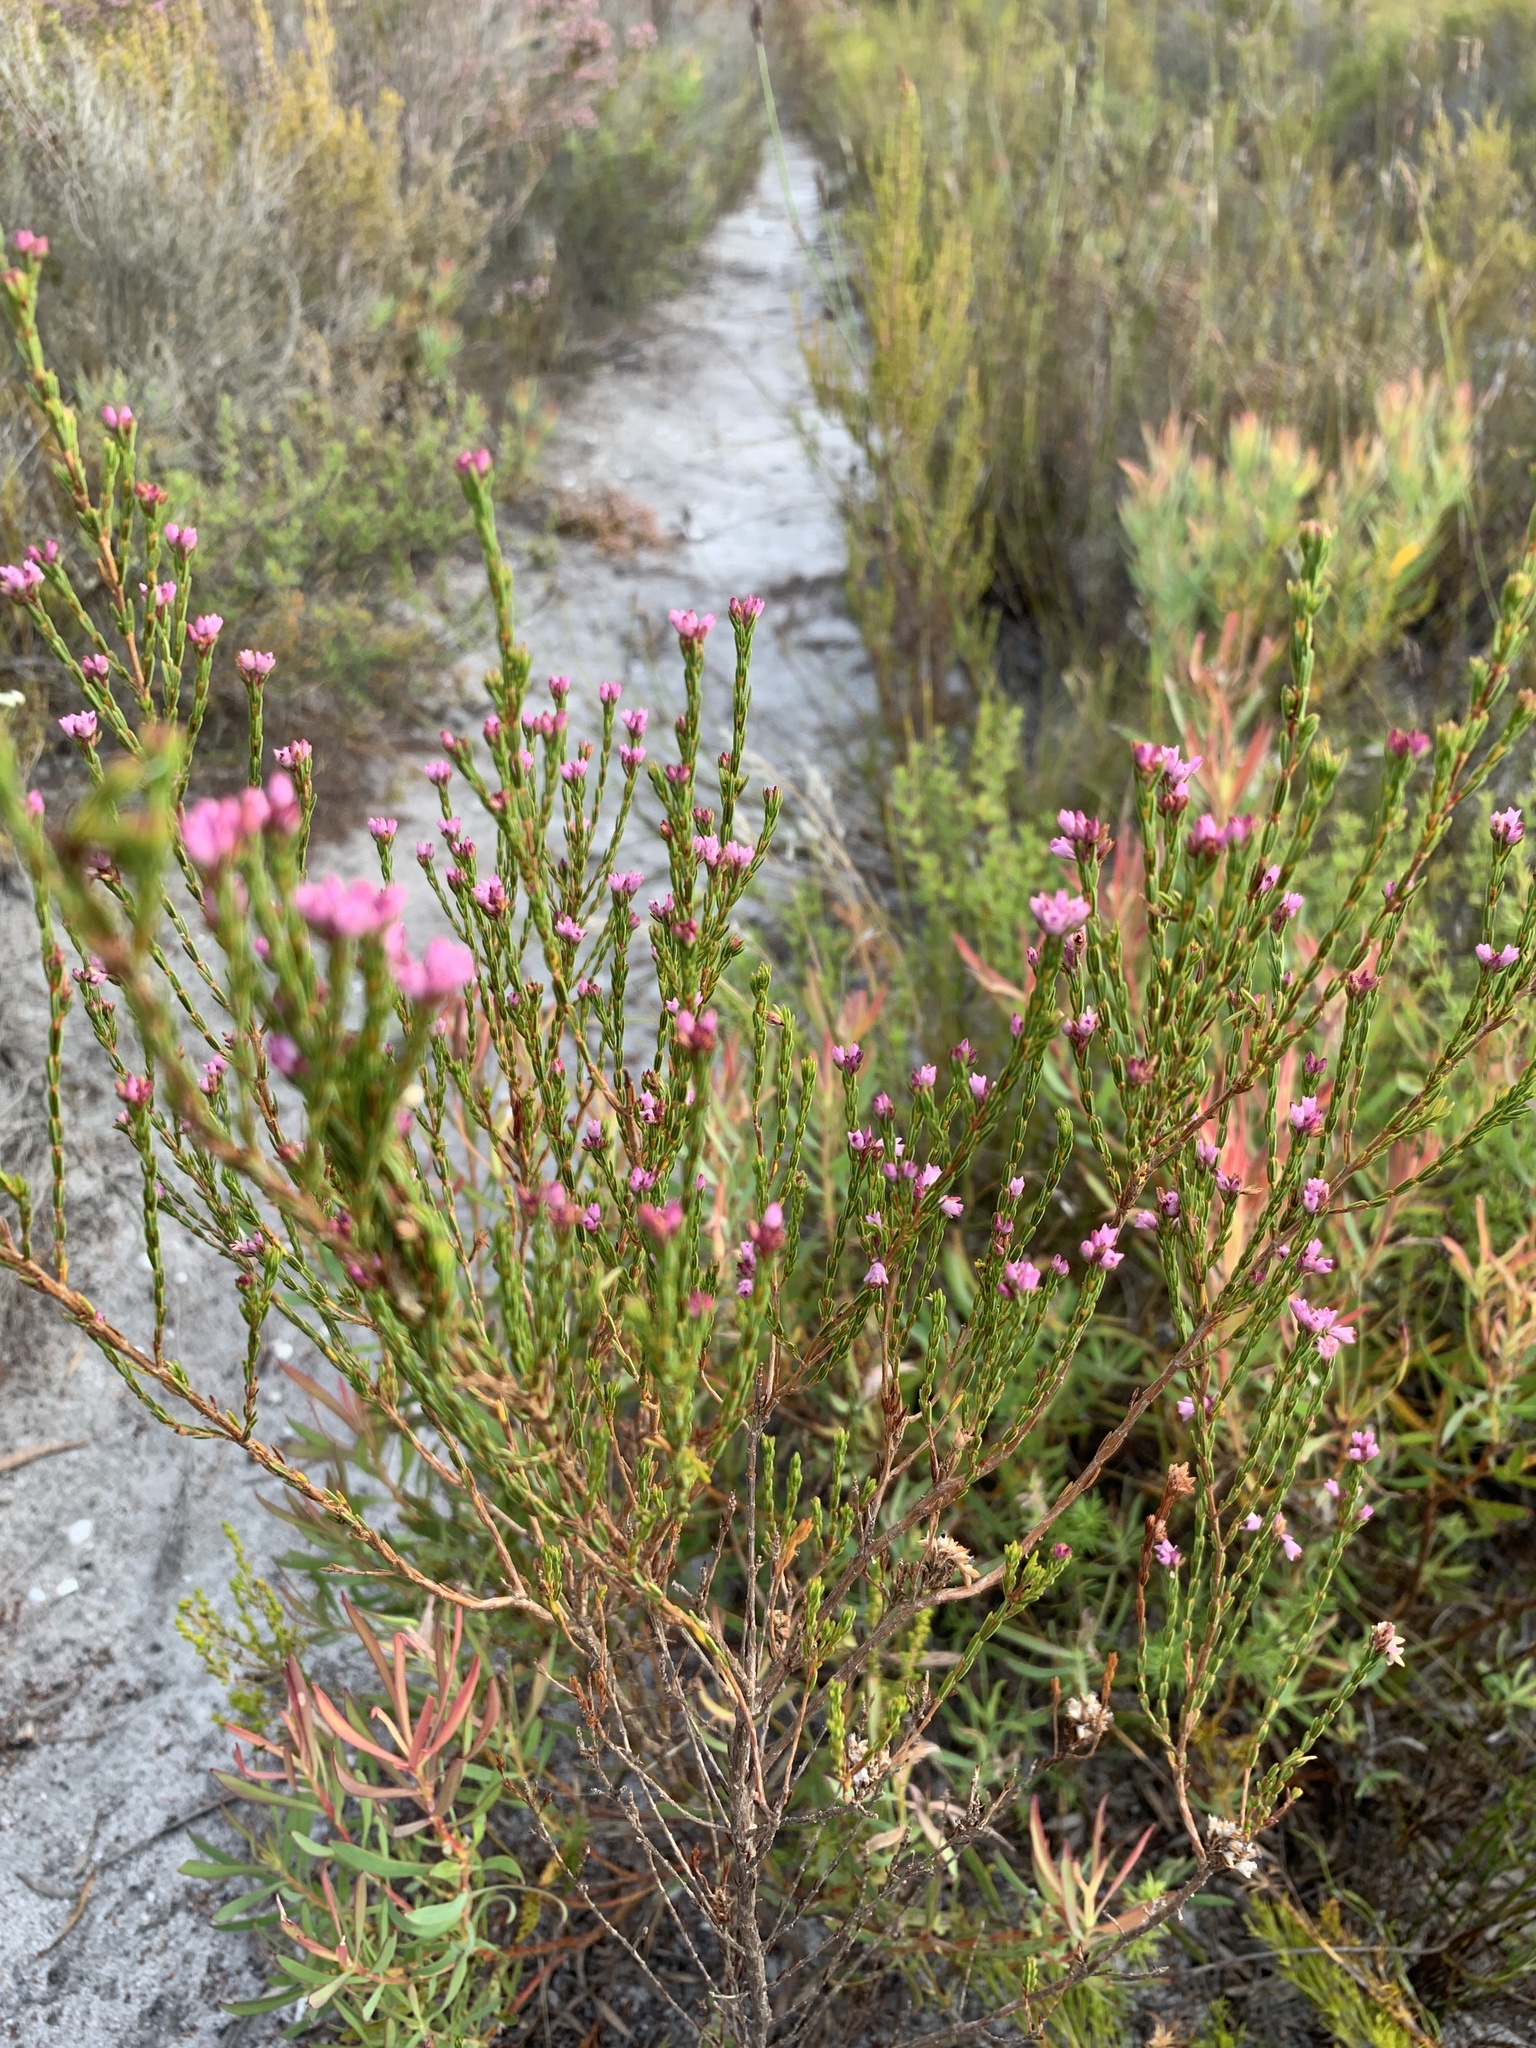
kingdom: Plantae
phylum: Tracheophyta
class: Magnoliopsida
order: Ericales
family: Ericaceae
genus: Erica
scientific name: Erica corifolia
